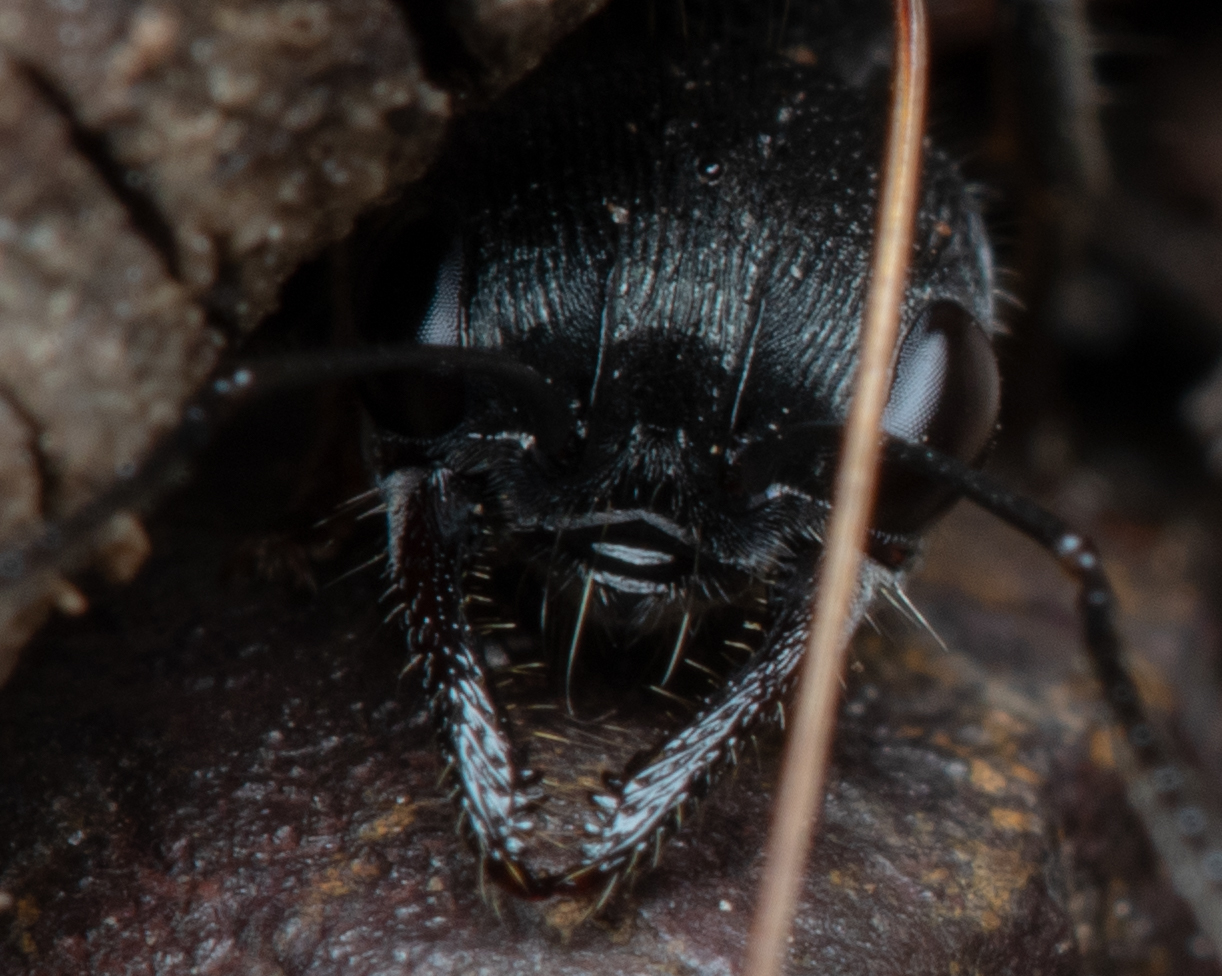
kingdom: Animalia
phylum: Arthropoda
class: Insecta
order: Hymenoptera
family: Formicidae
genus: Myrmecia
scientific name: Myrmecia gilberti
